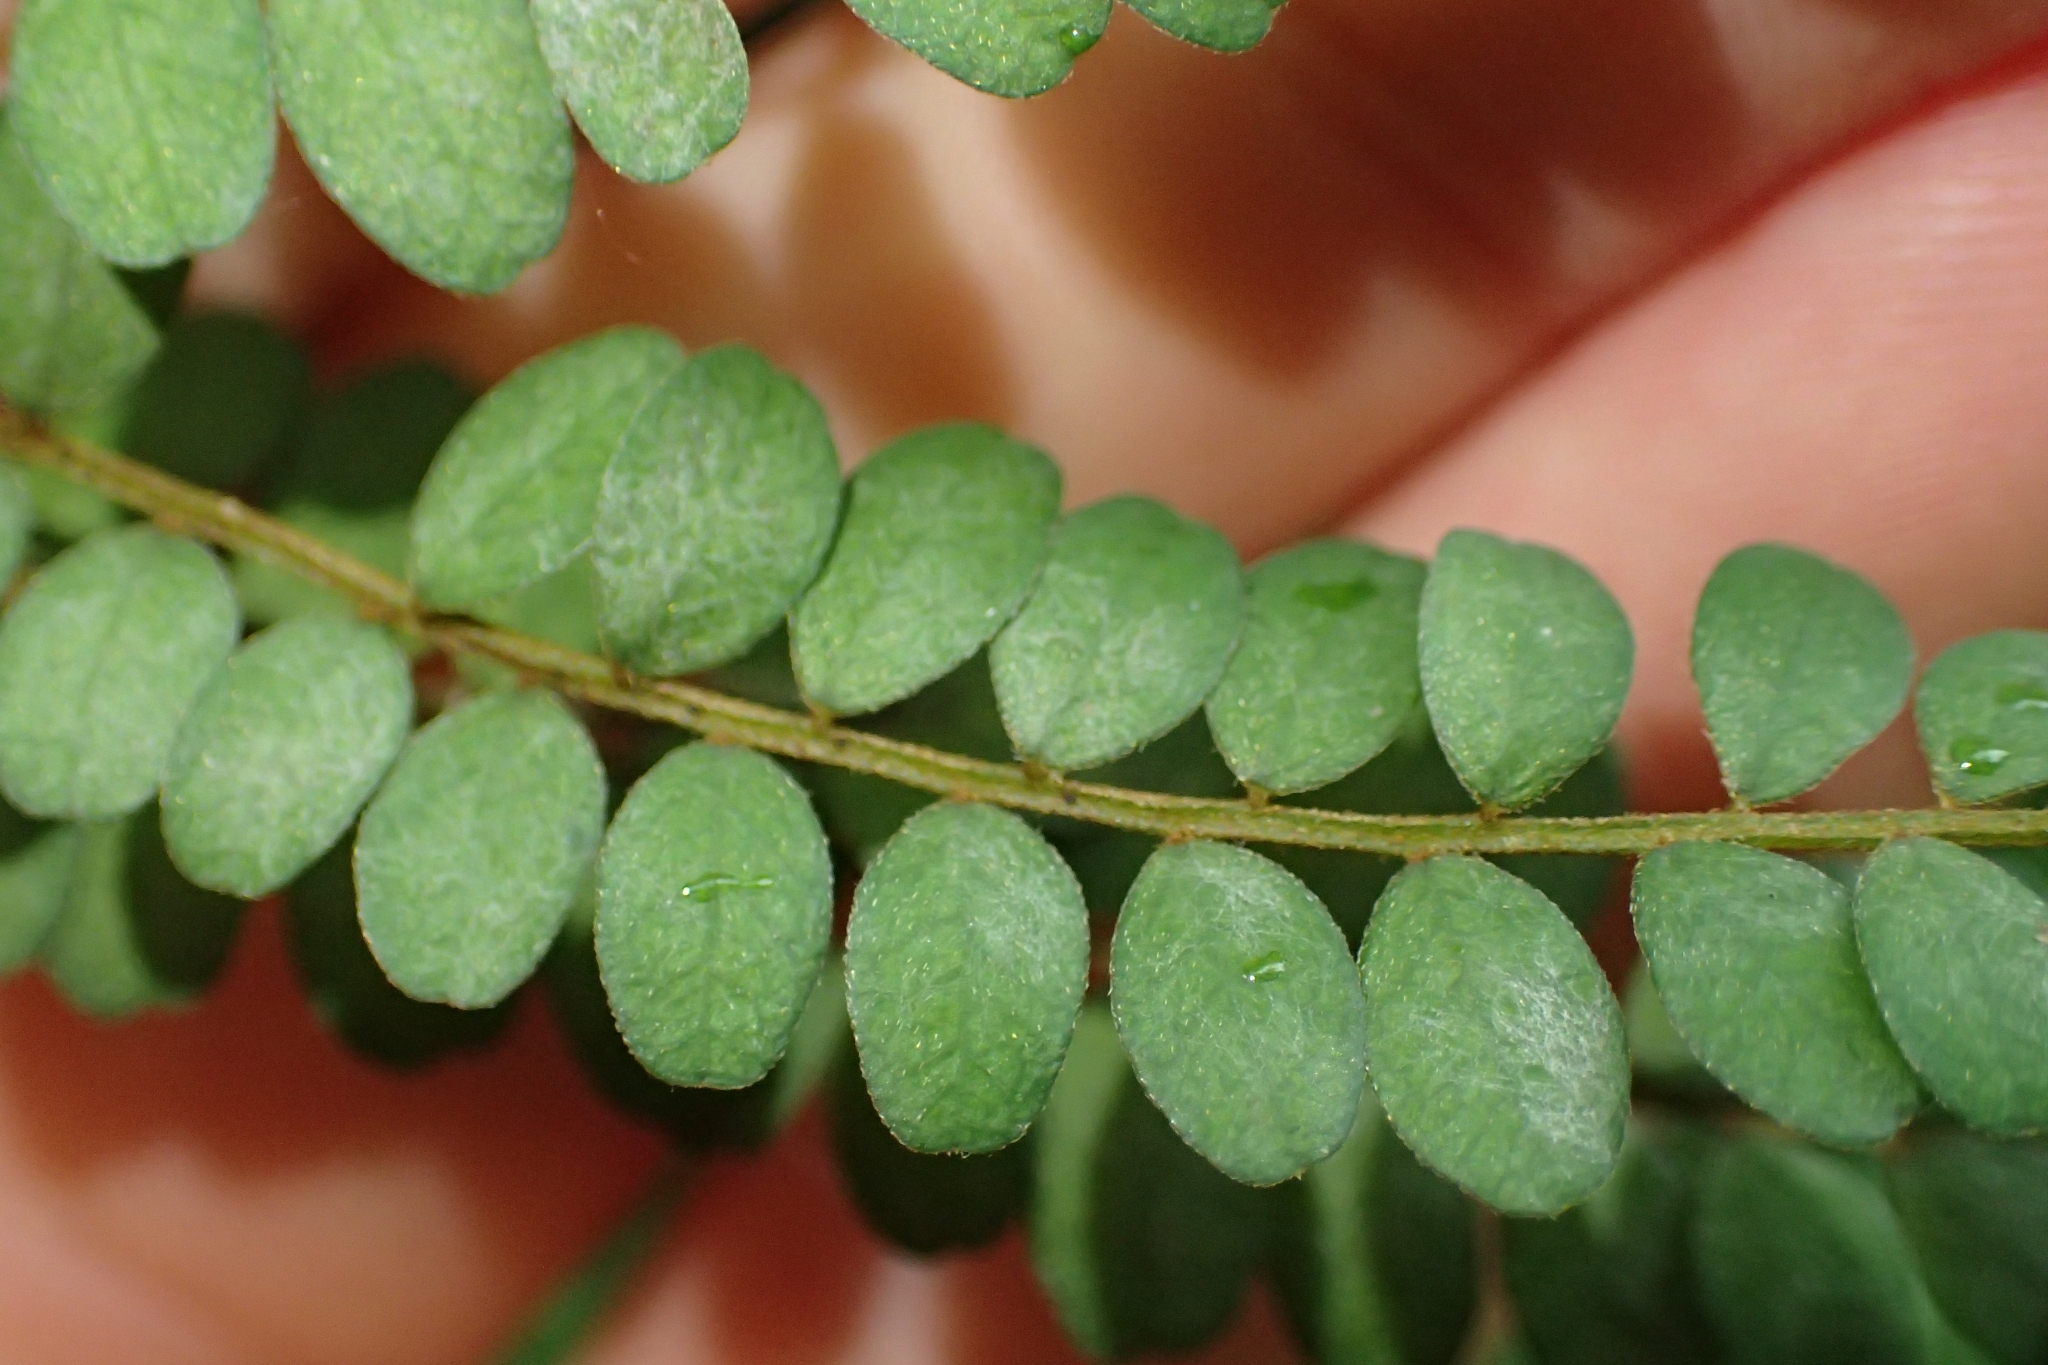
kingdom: Plantae
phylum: Tracheophyta
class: Magnoliopsida
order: Fabales
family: Fabaceae
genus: Sophora
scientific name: Sophora microphylla
